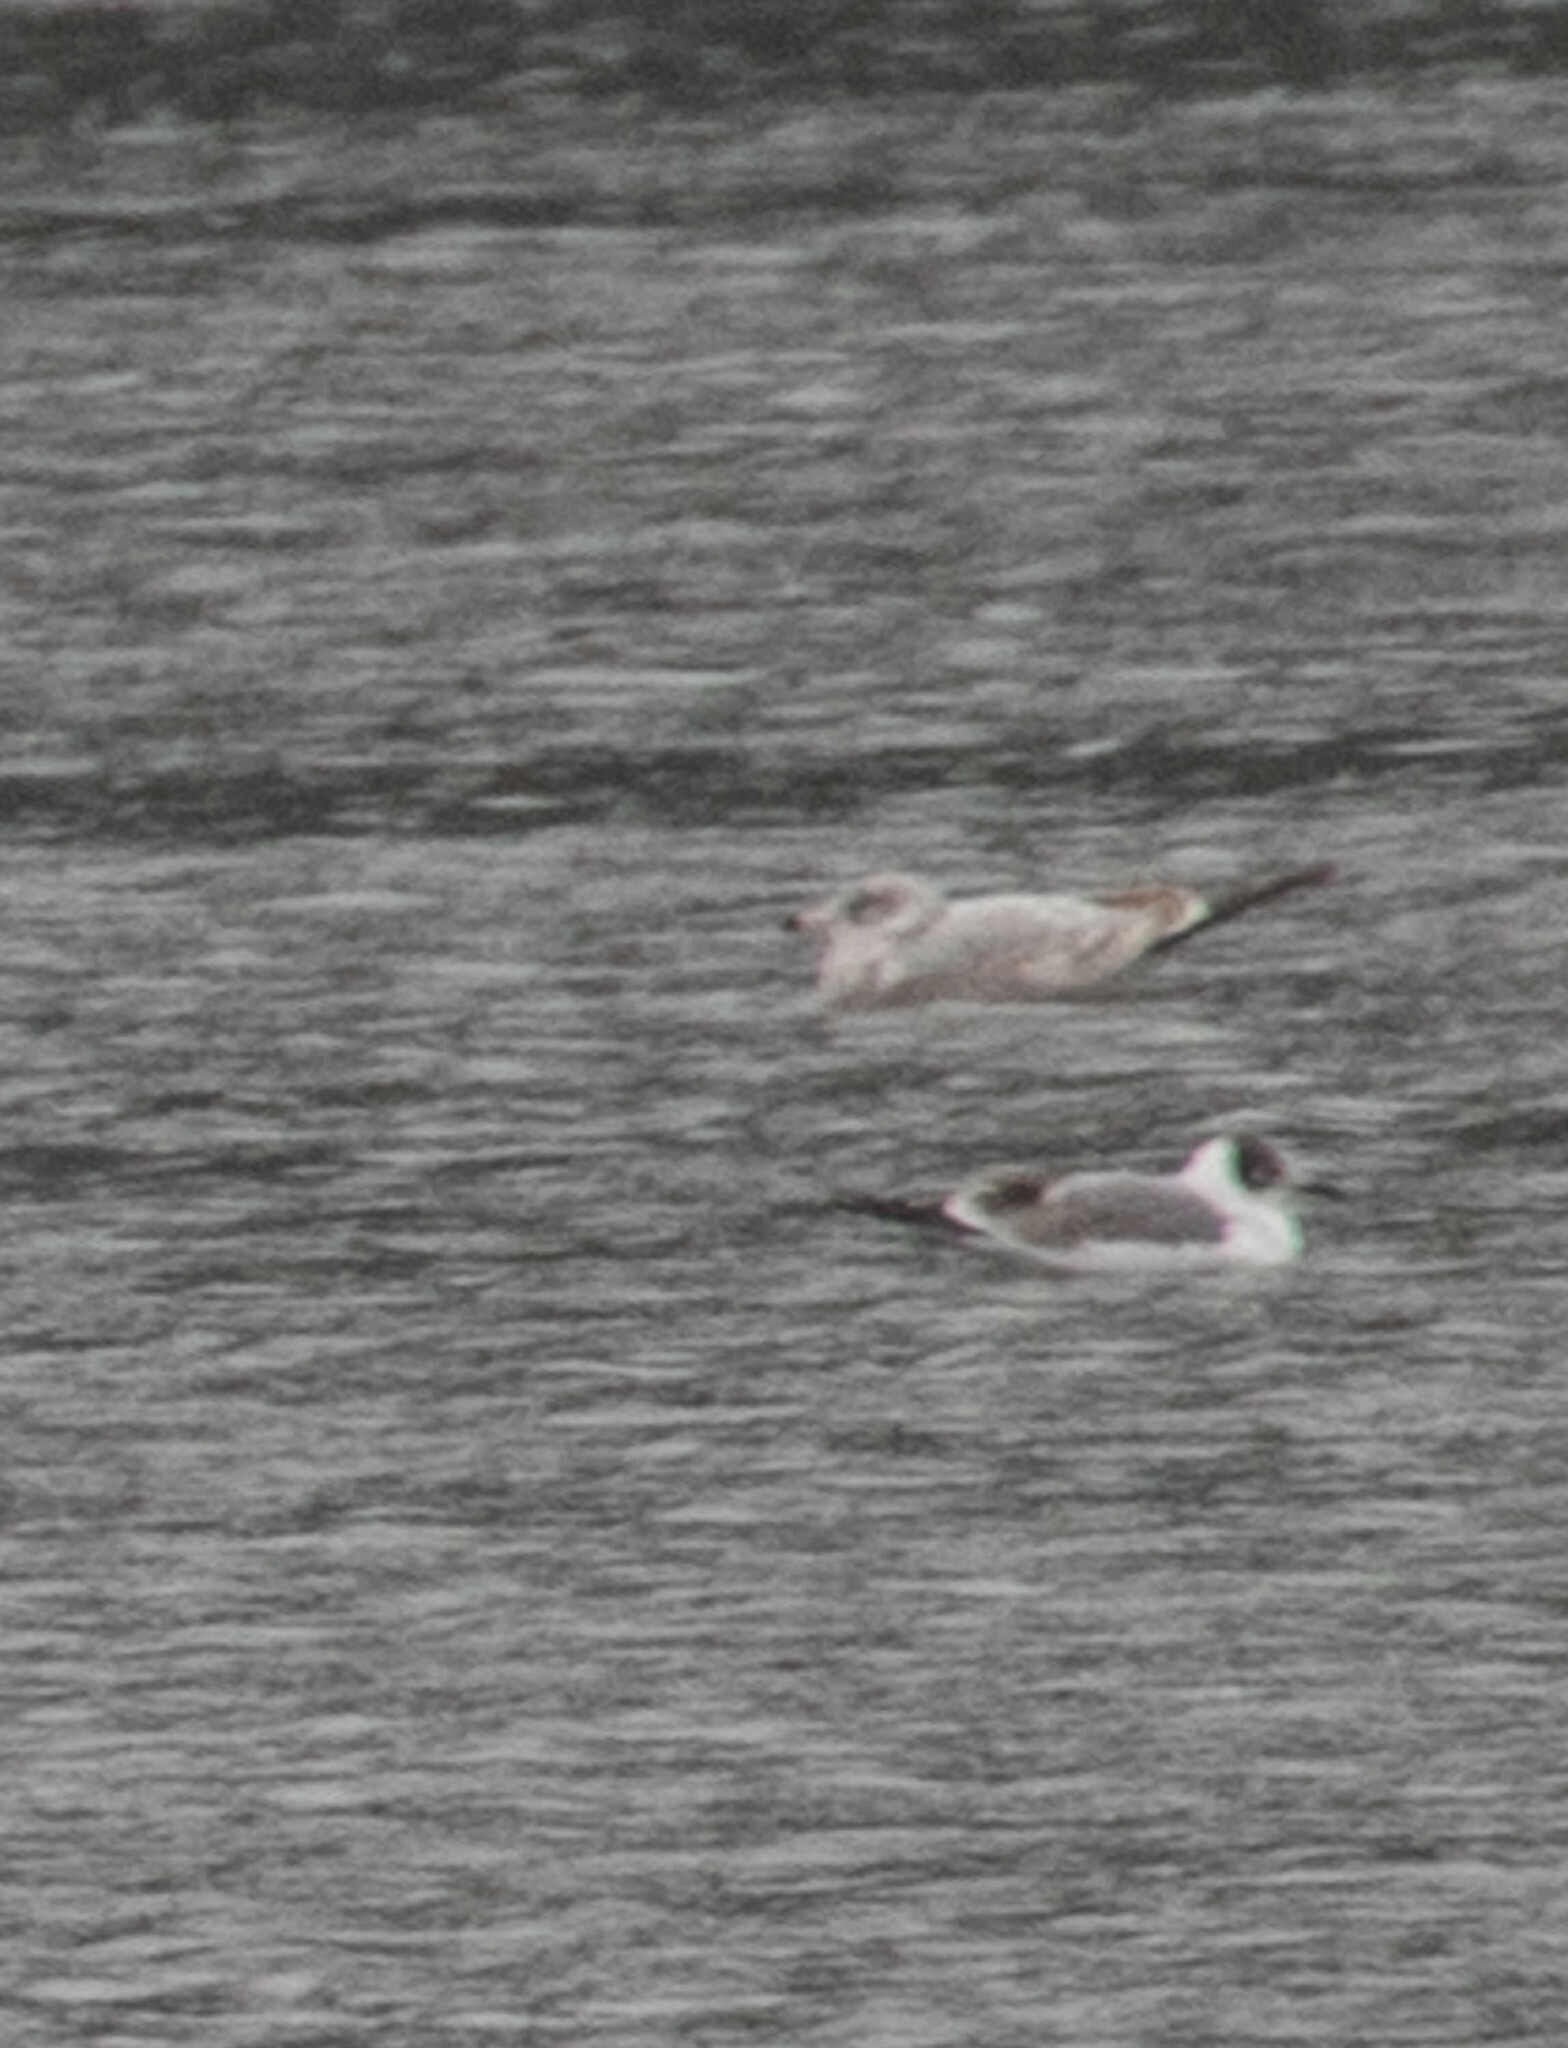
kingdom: Animalia
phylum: Chordata
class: Aves
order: Charadriiformes
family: Laridae
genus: Leucophaeus
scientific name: Leucophaeus pipixcan
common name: Franklin's gull
